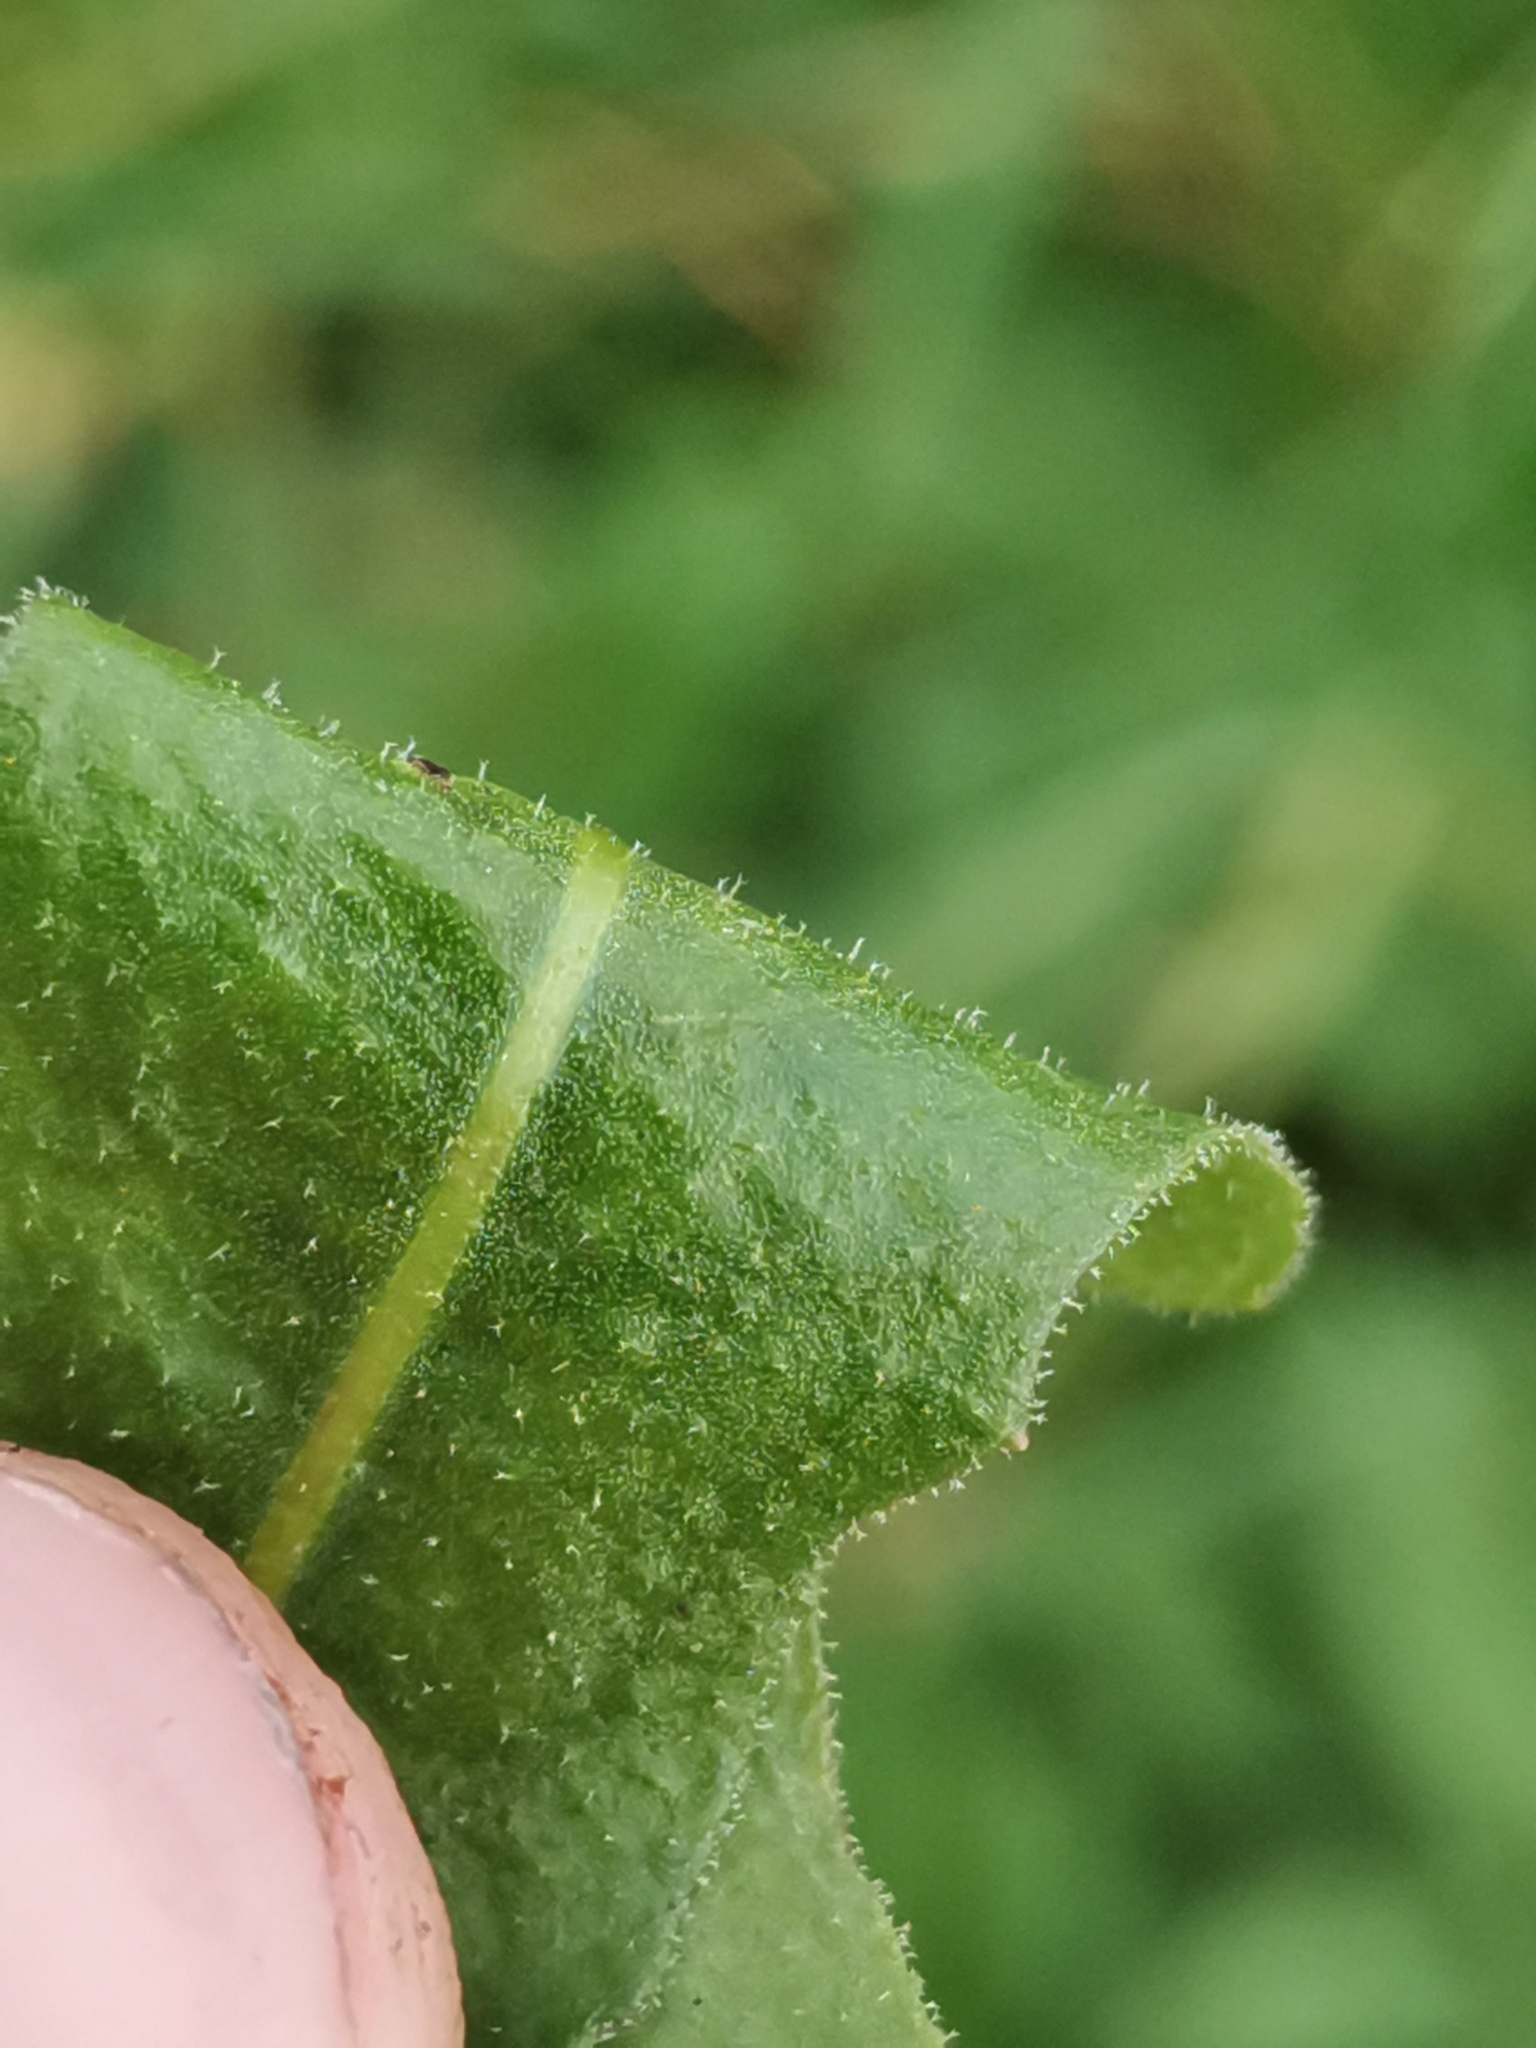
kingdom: Plantae
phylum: Tracheophyta
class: Magnoliopsida
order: Asterales
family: Asteraceae
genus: Leontodon
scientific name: Leontodon hispidus
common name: Rough hawkbit
